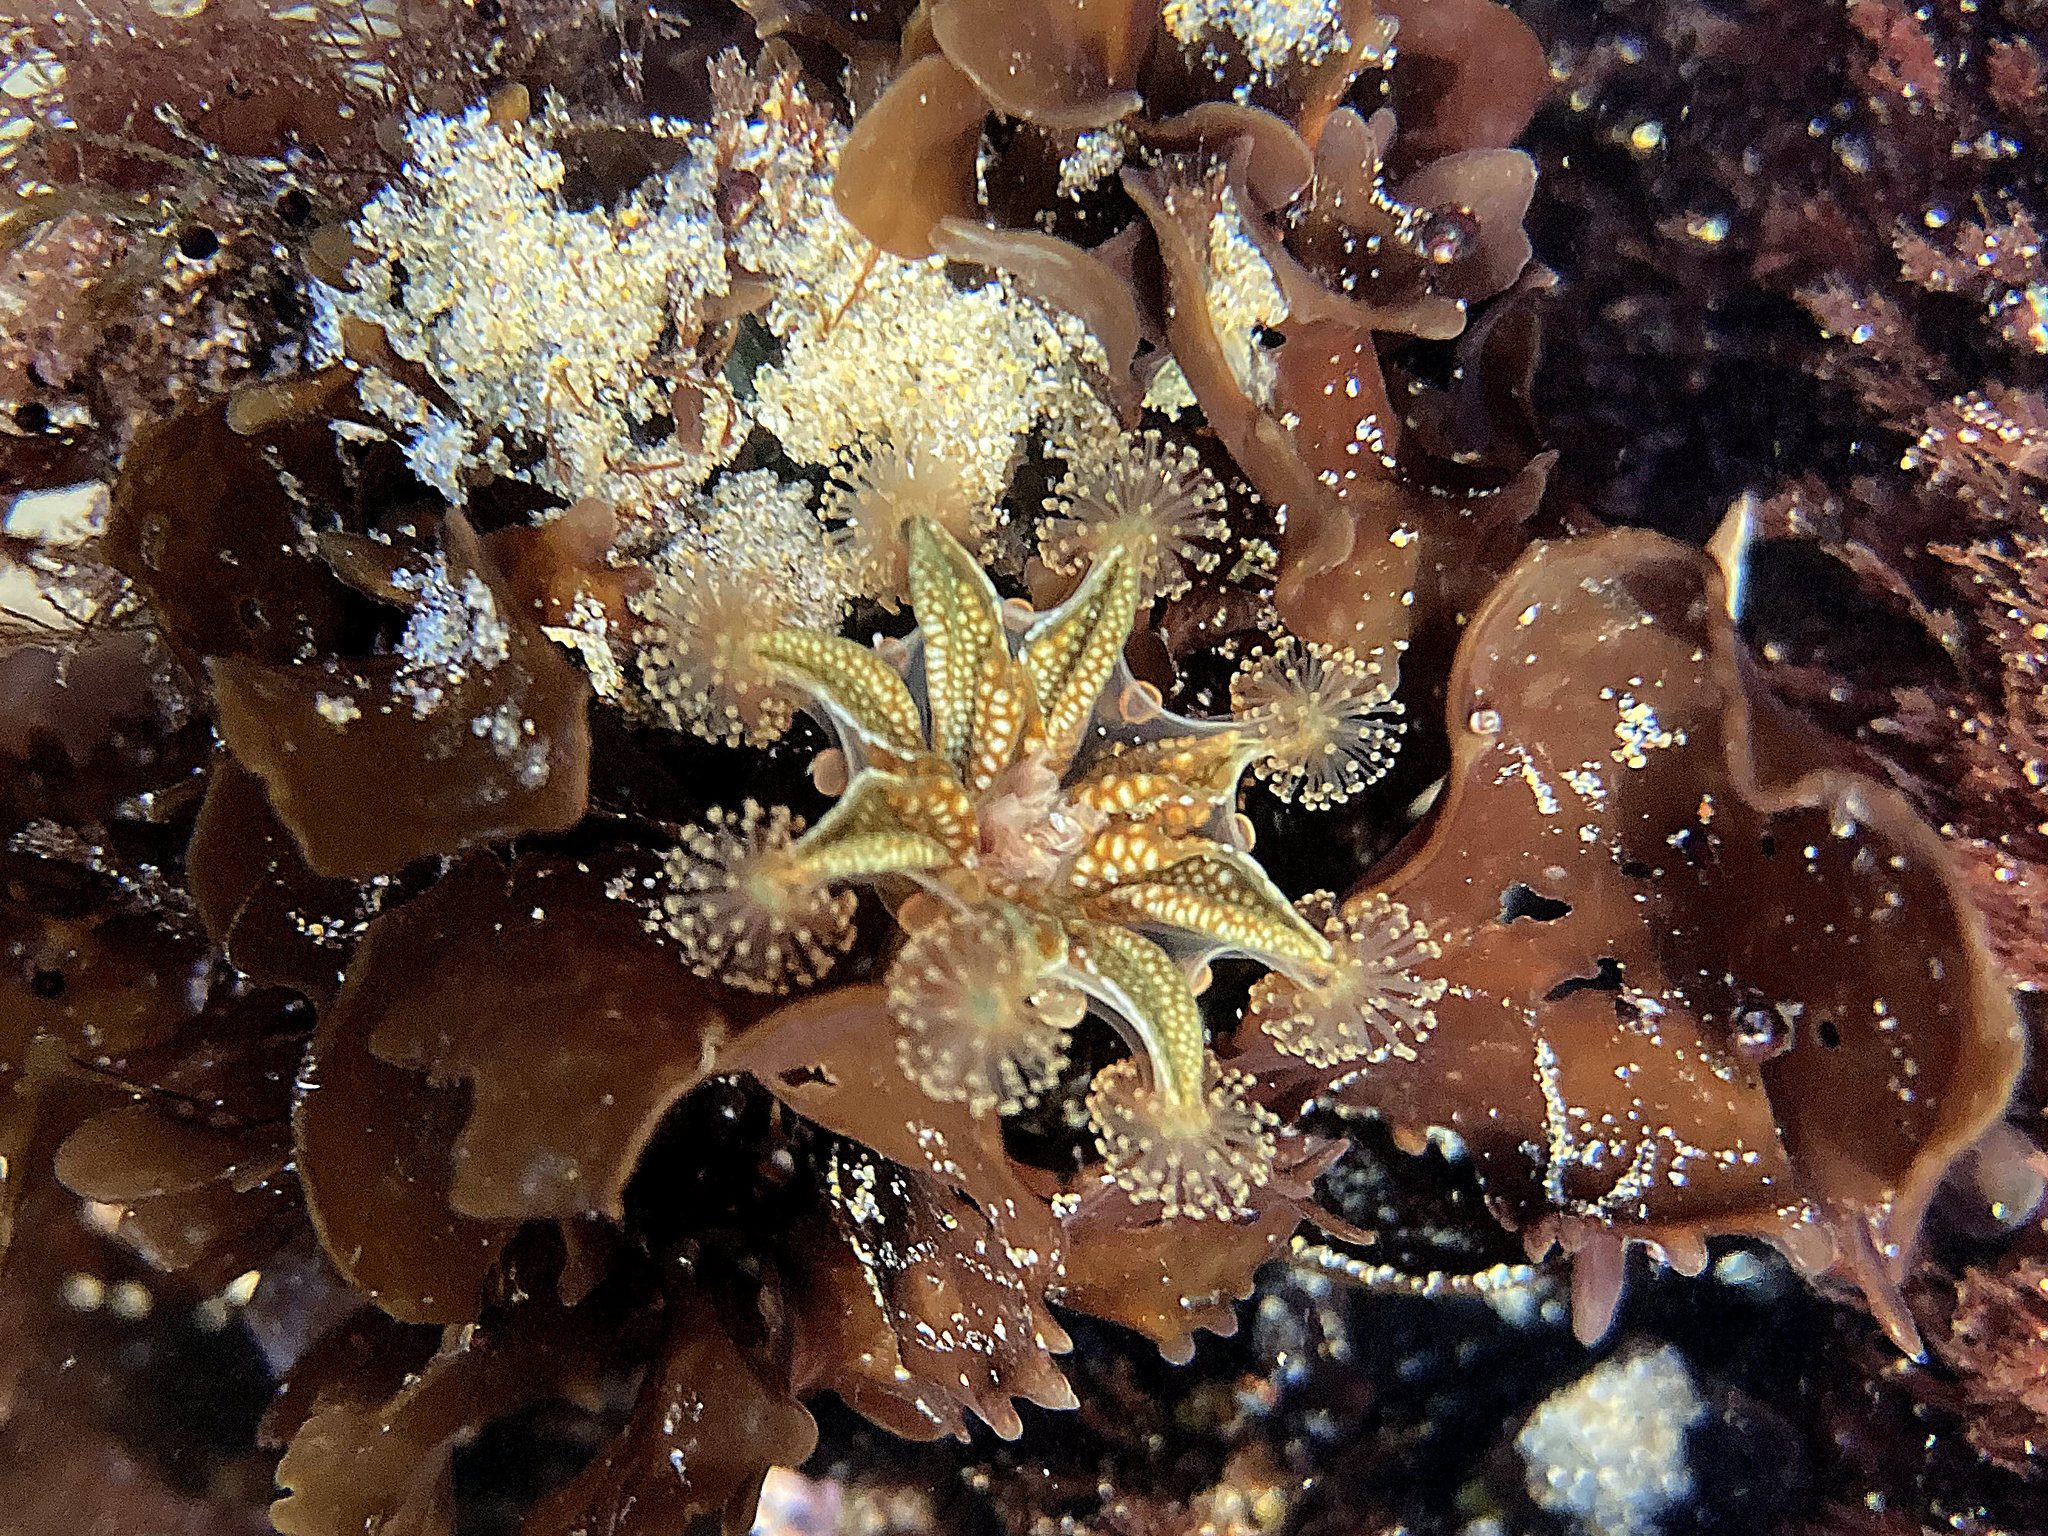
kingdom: Animalia
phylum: Cnidaria
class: Staurozoa
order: Stauromedusae
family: Haliclystidae
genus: Haliclystus
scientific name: Haliclystus sanjuanensis
